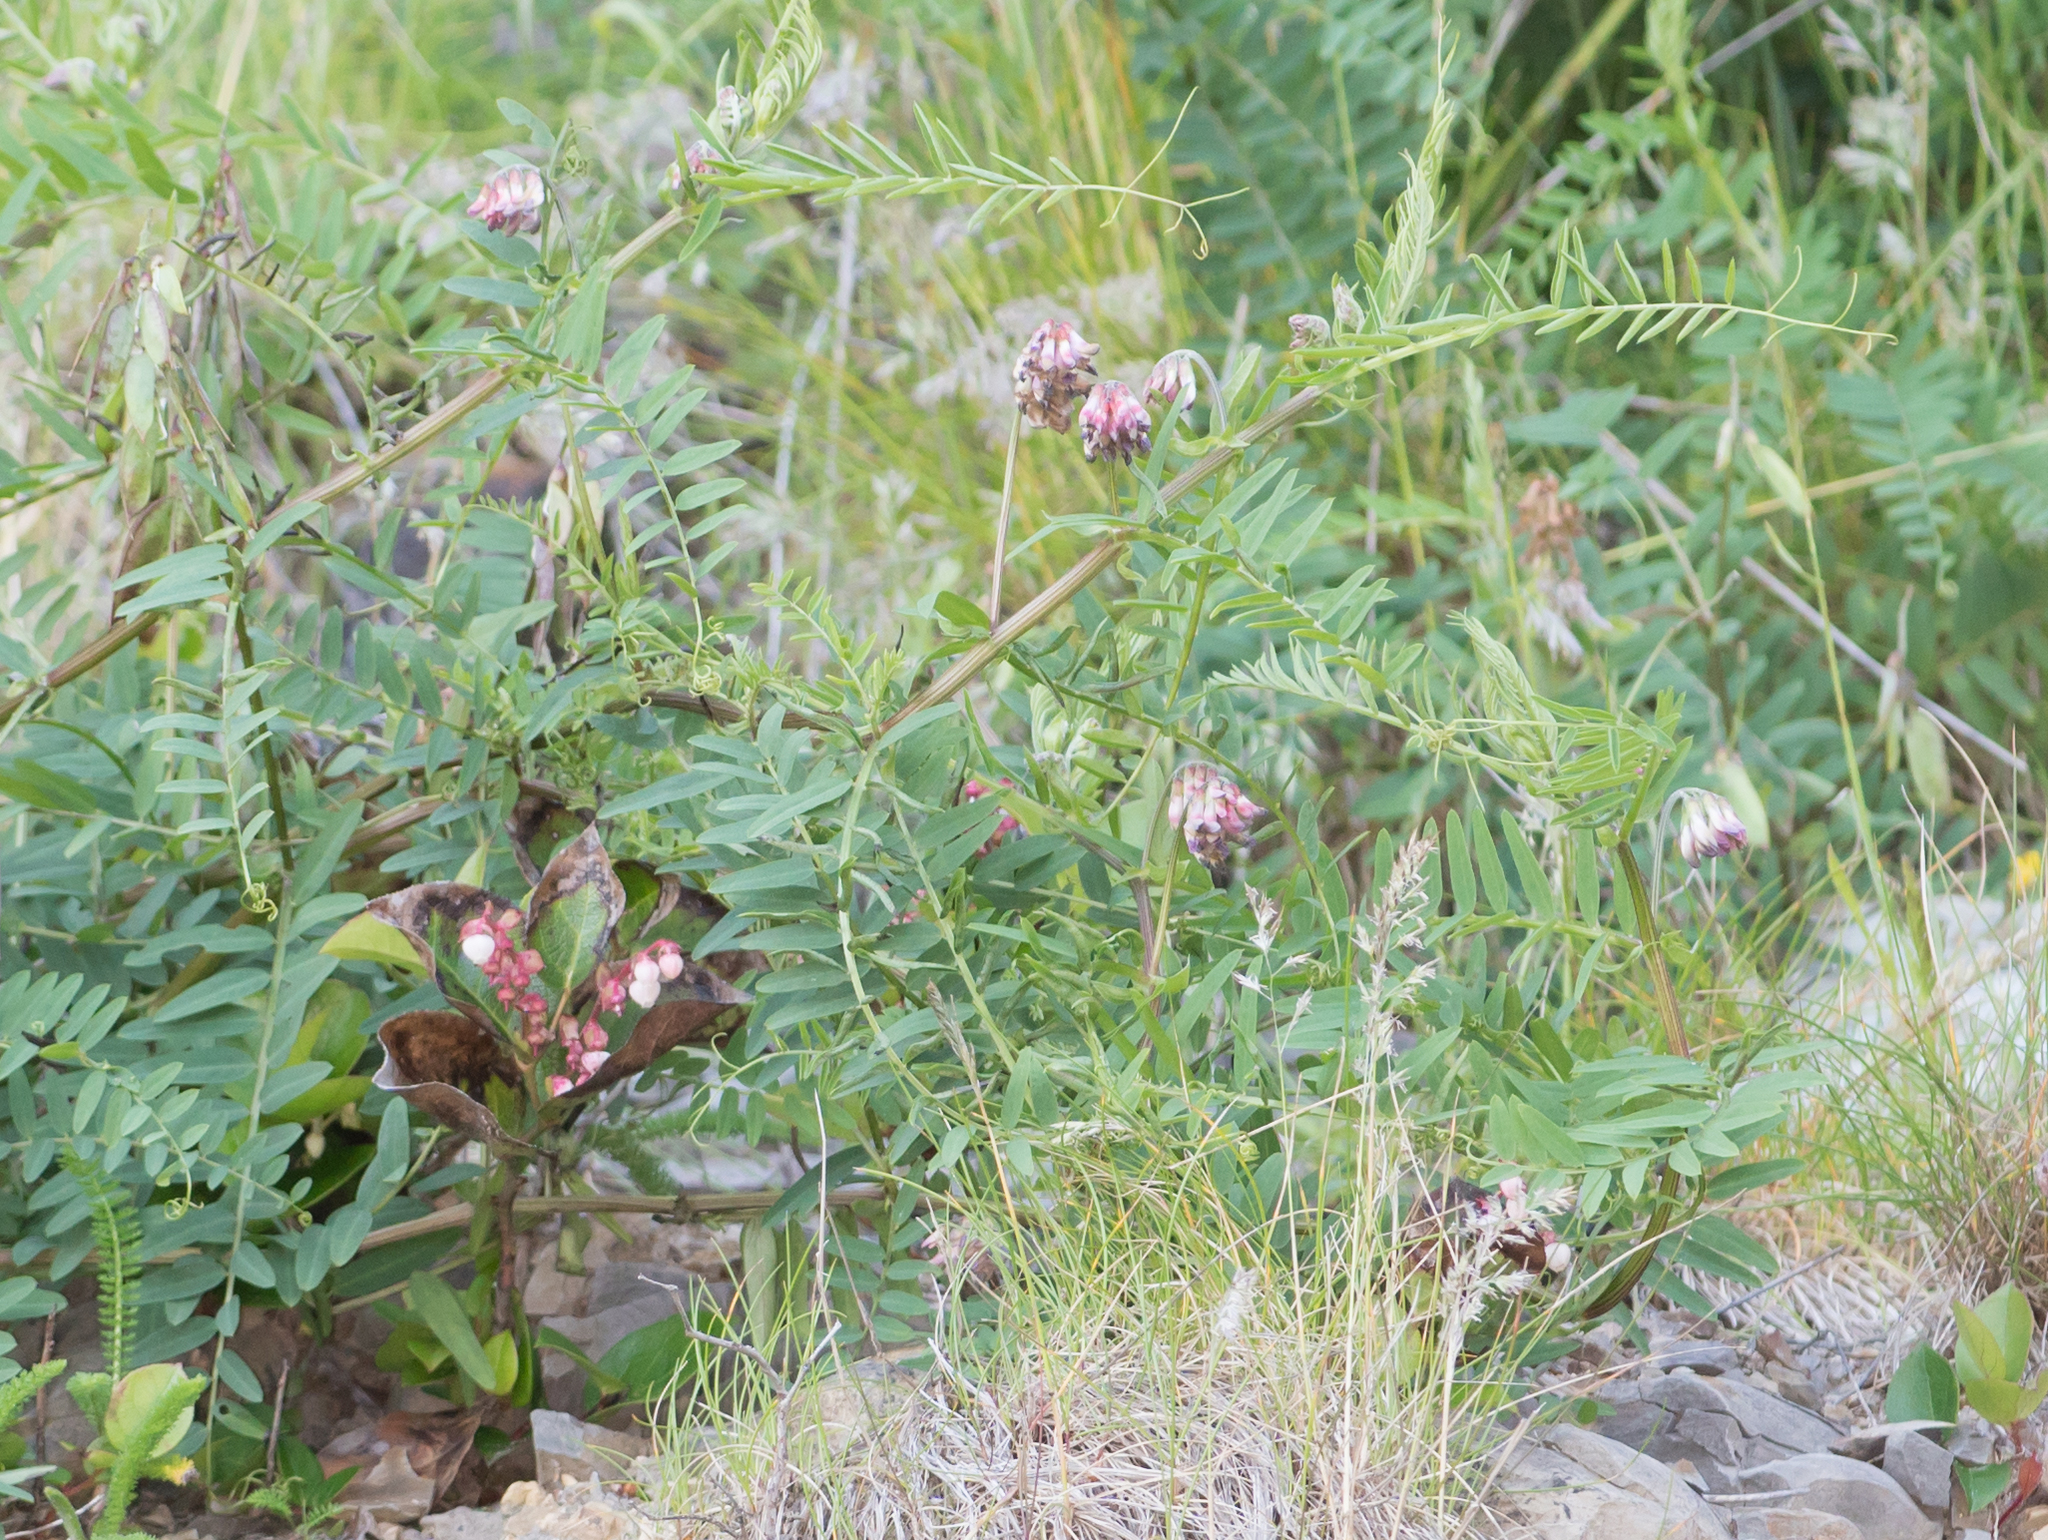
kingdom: Plantae
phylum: Tracheophyta
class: Magnoliopsida
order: Fabales
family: Fabaceae
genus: Vicia
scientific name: Vicia
